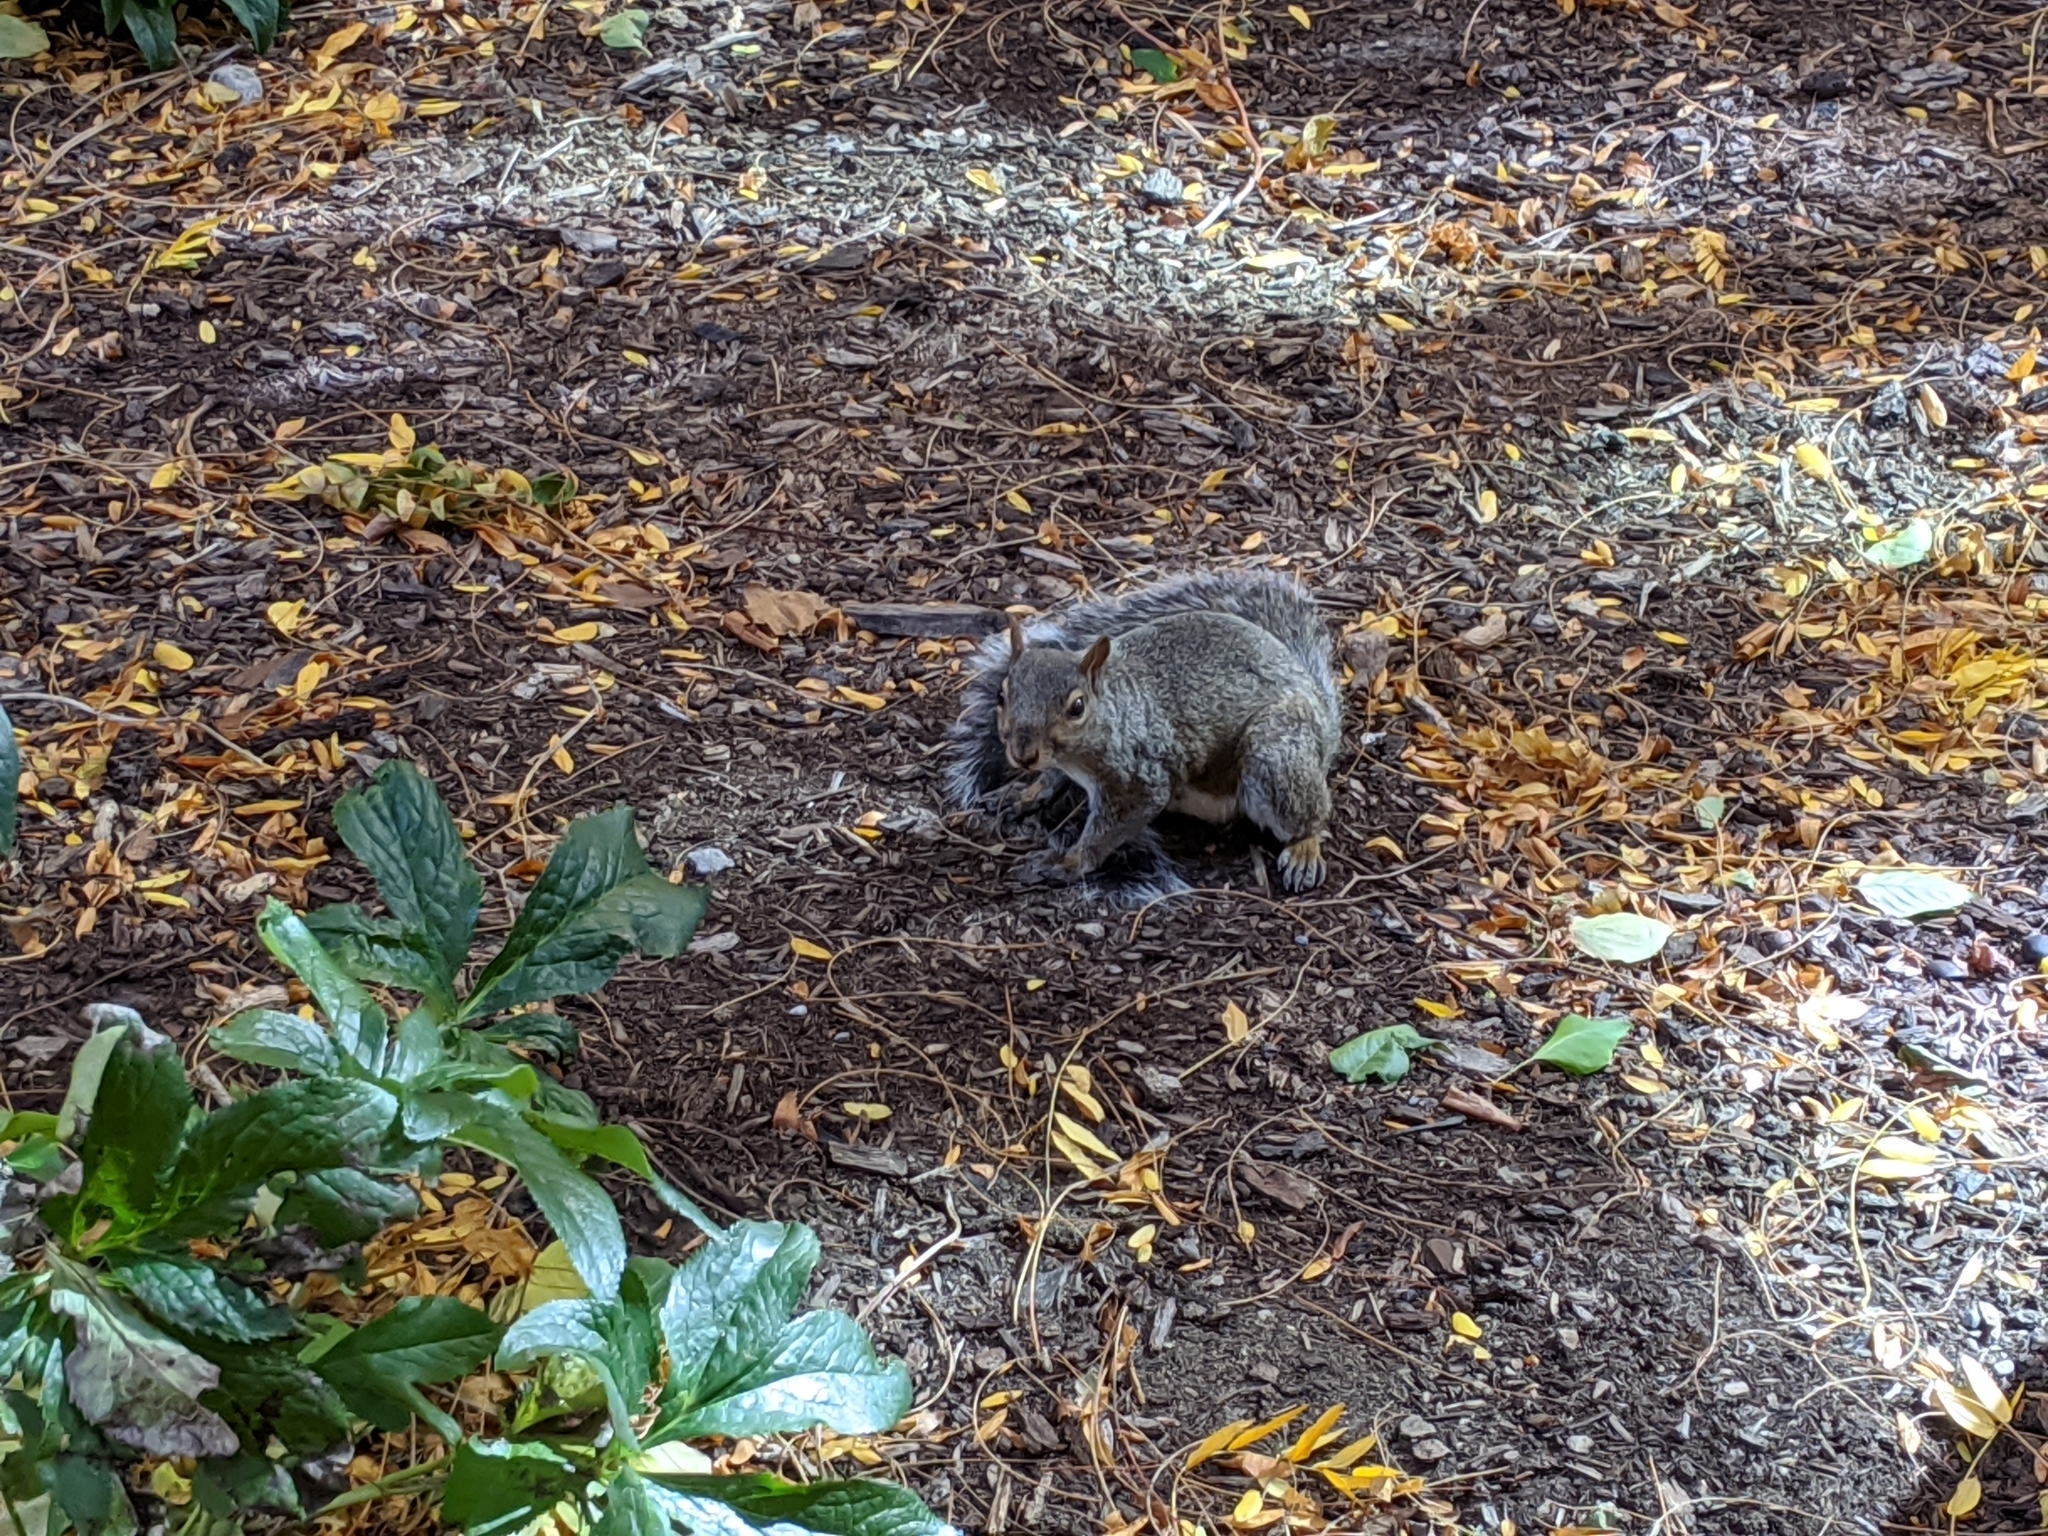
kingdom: Animalia
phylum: Chordata
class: Mammalia
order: Rodentia
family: Sciuridae
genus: Sciurus
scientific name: Sciurus carolinensis
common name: Eastern gray squirrel
